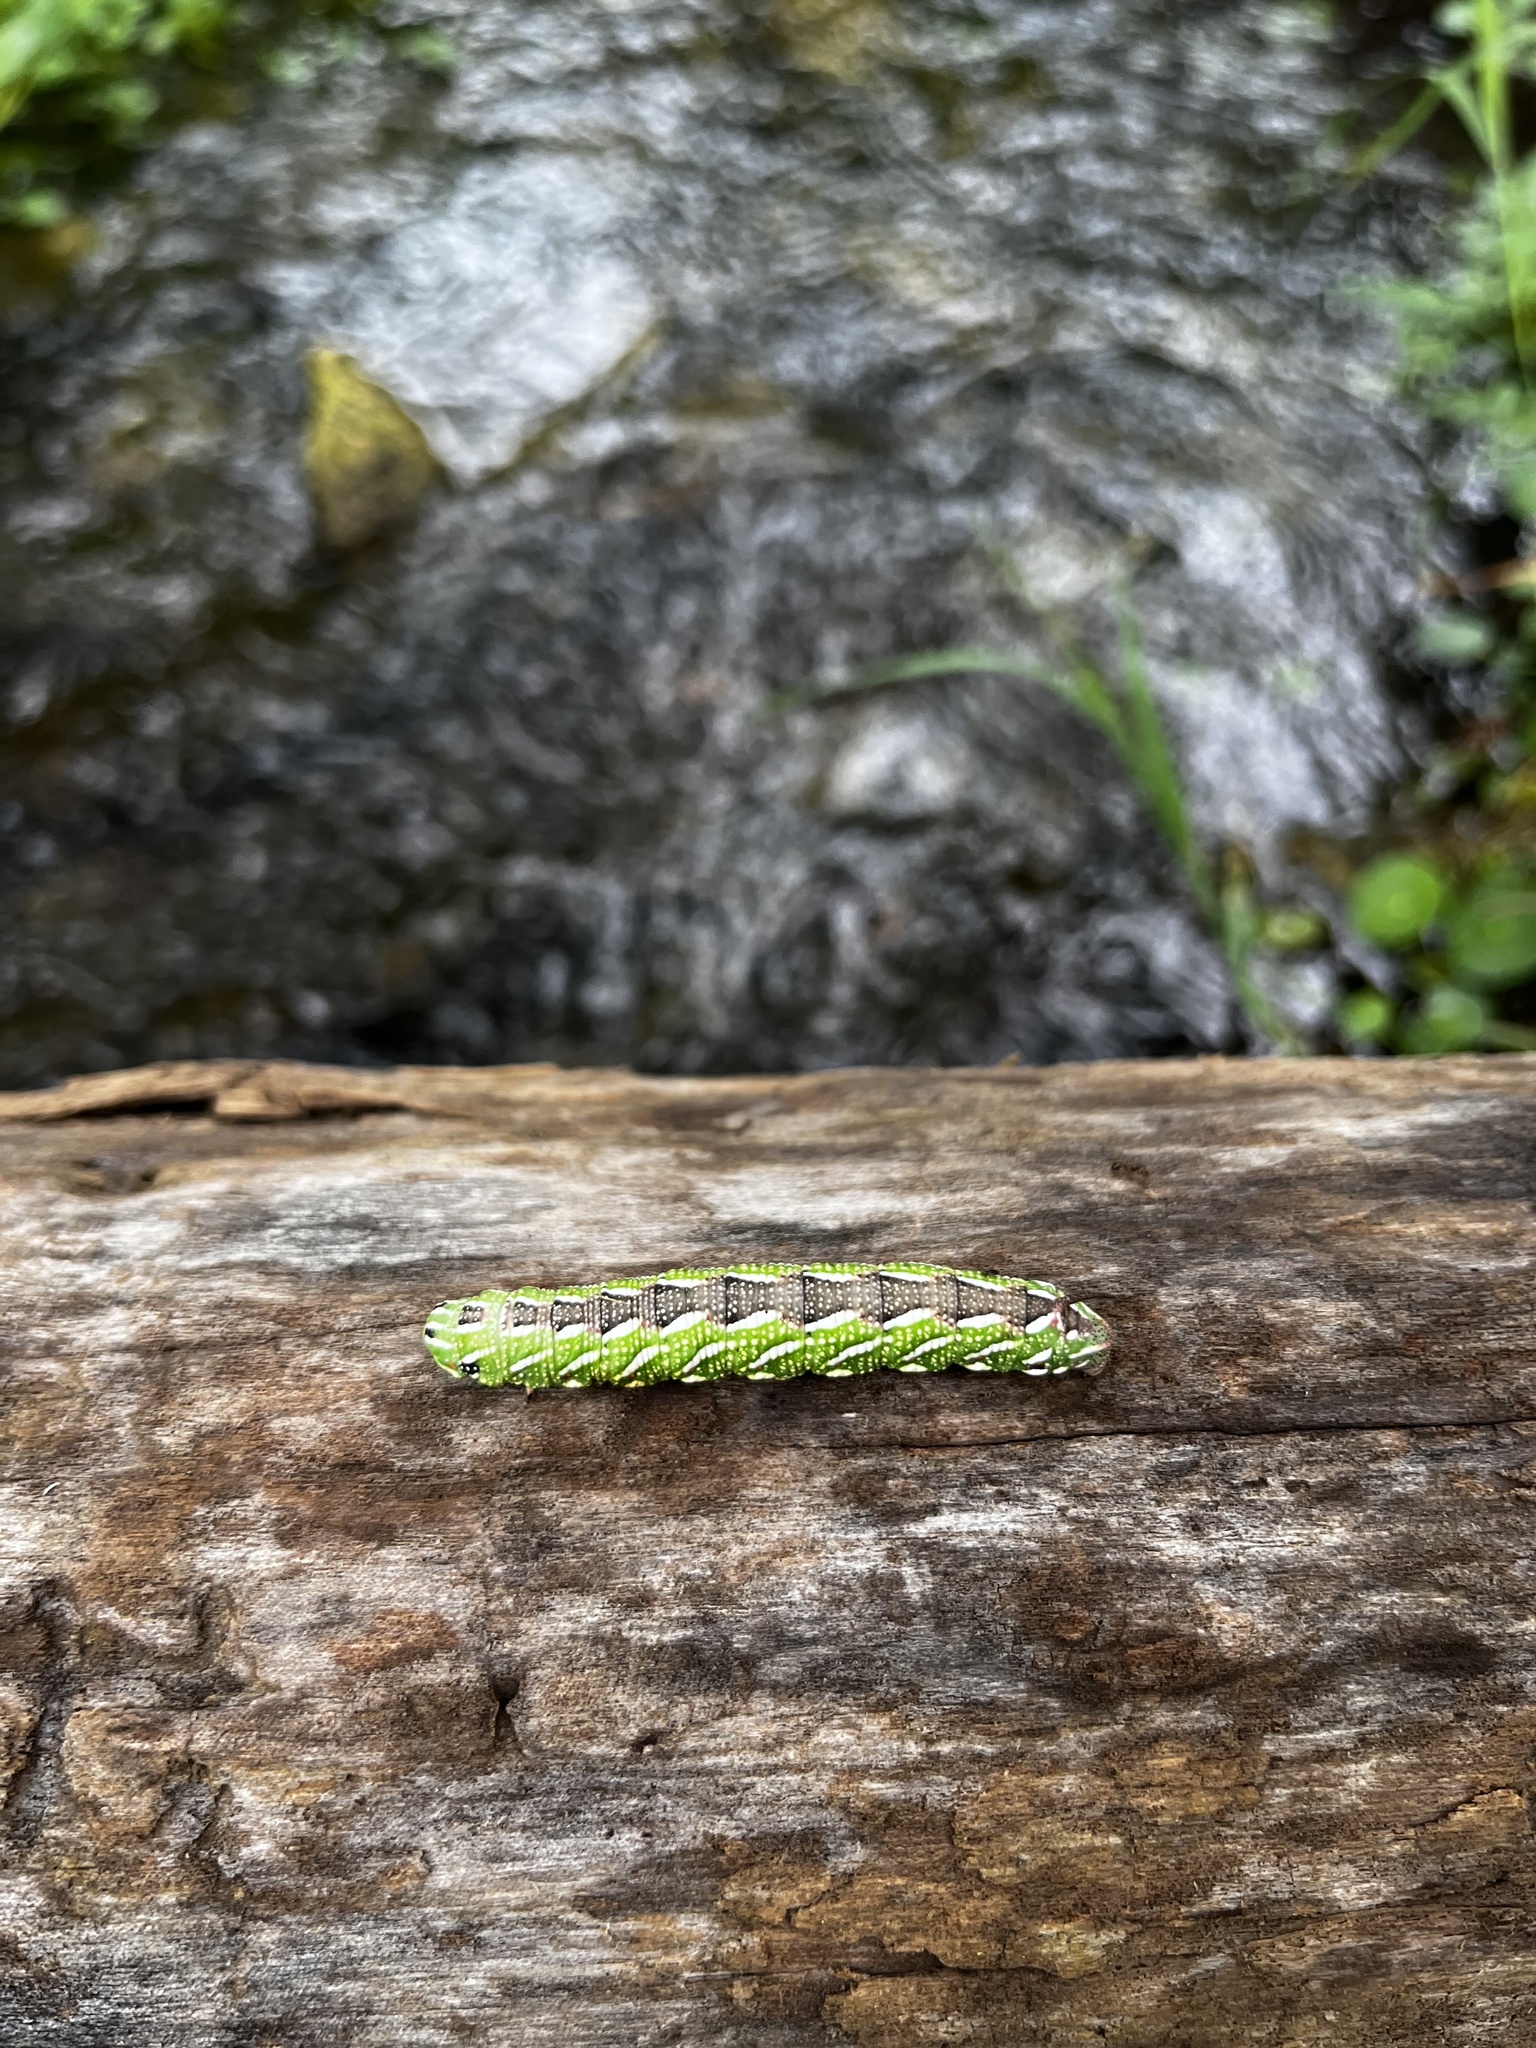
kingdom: Animalia
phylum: Arthropoda
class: Insecta
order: Lepidoptera
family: Sphingidae
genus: Isoparce
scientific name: Isoparce cupressi
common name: Cypress sphinx
